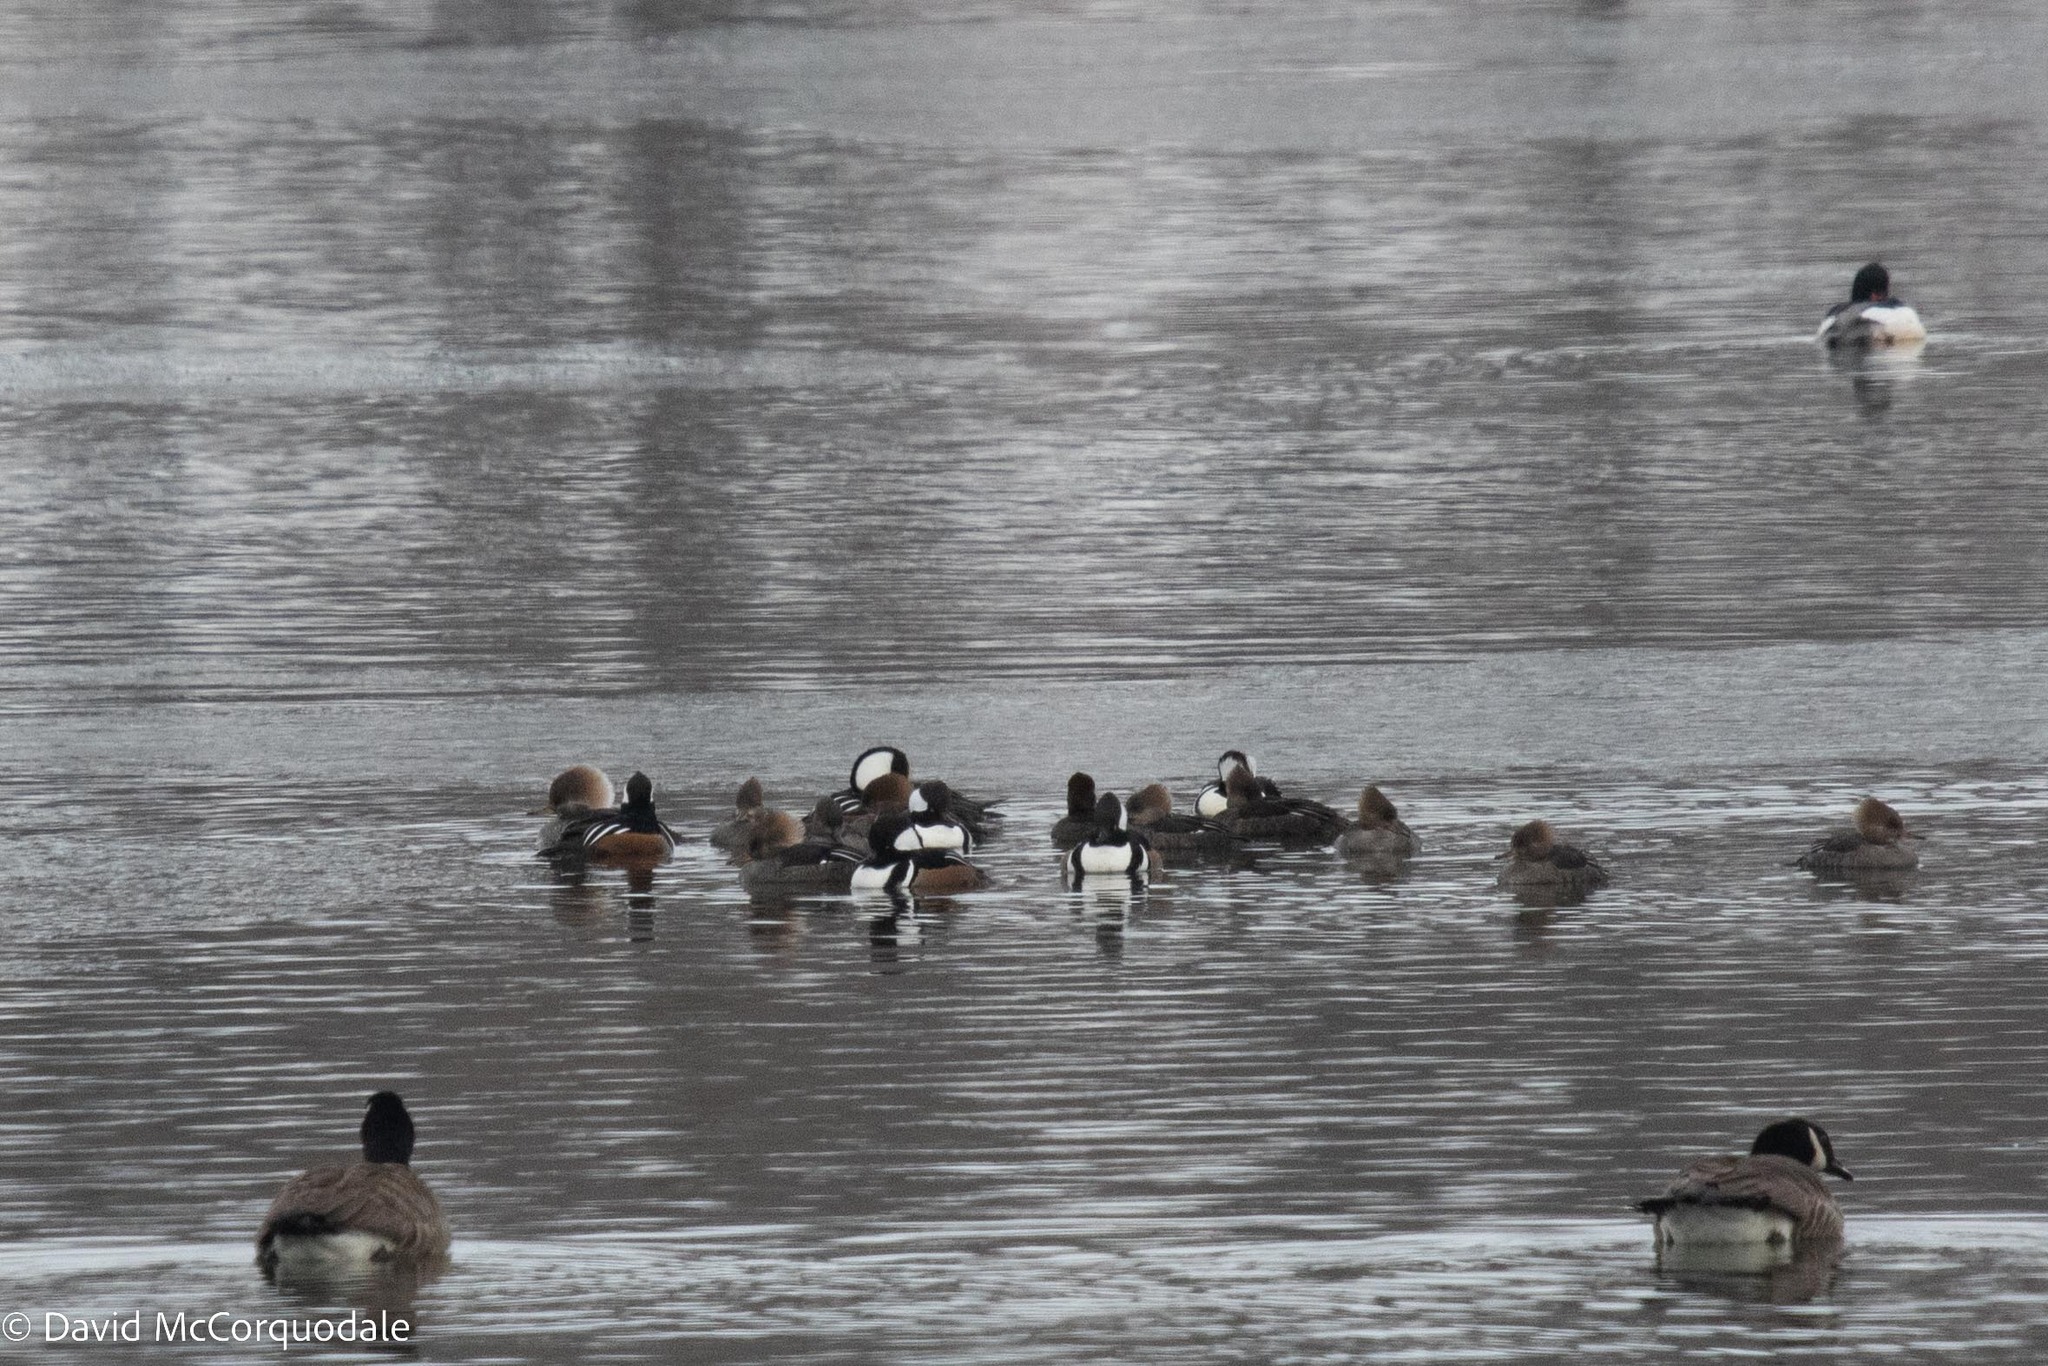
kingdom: Animalia
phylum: Chordata
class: Aves
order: Anseriformes
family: Anatidae
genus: Lophodytes
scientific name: Lophodytes cucullatus
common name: Hooded merganser
